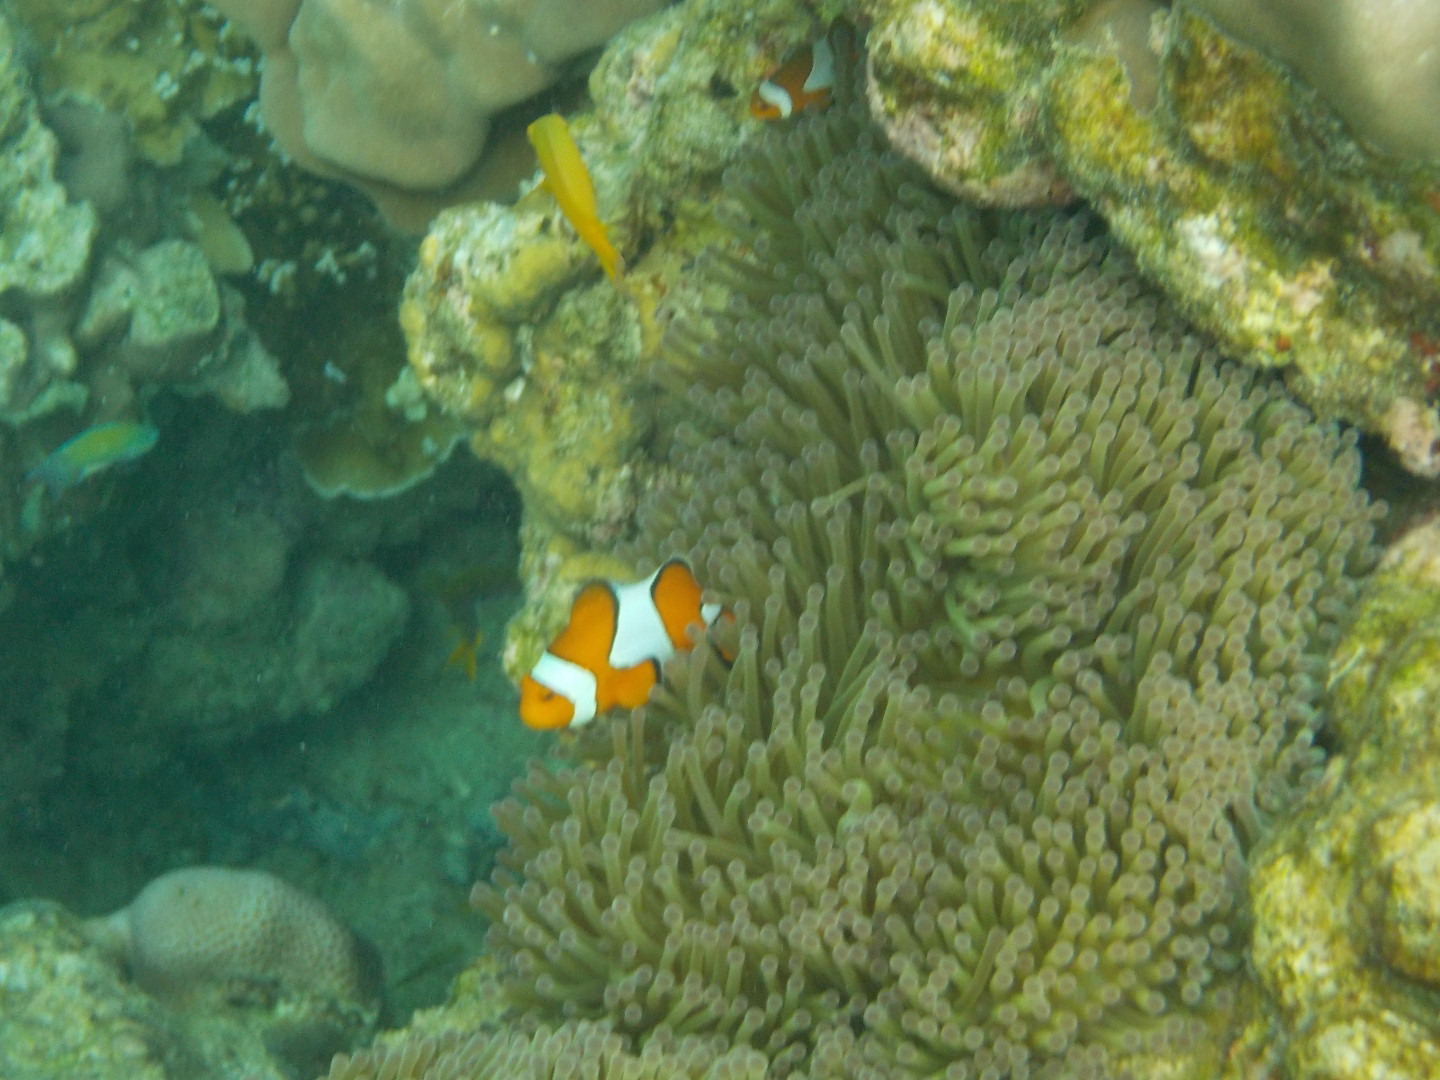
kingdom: Animalia
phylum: Chordata
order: Perciformes
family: Pomacentridae
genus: Amphiprion
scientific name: Amphiprion ocellaris
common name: Clown anemonefish
